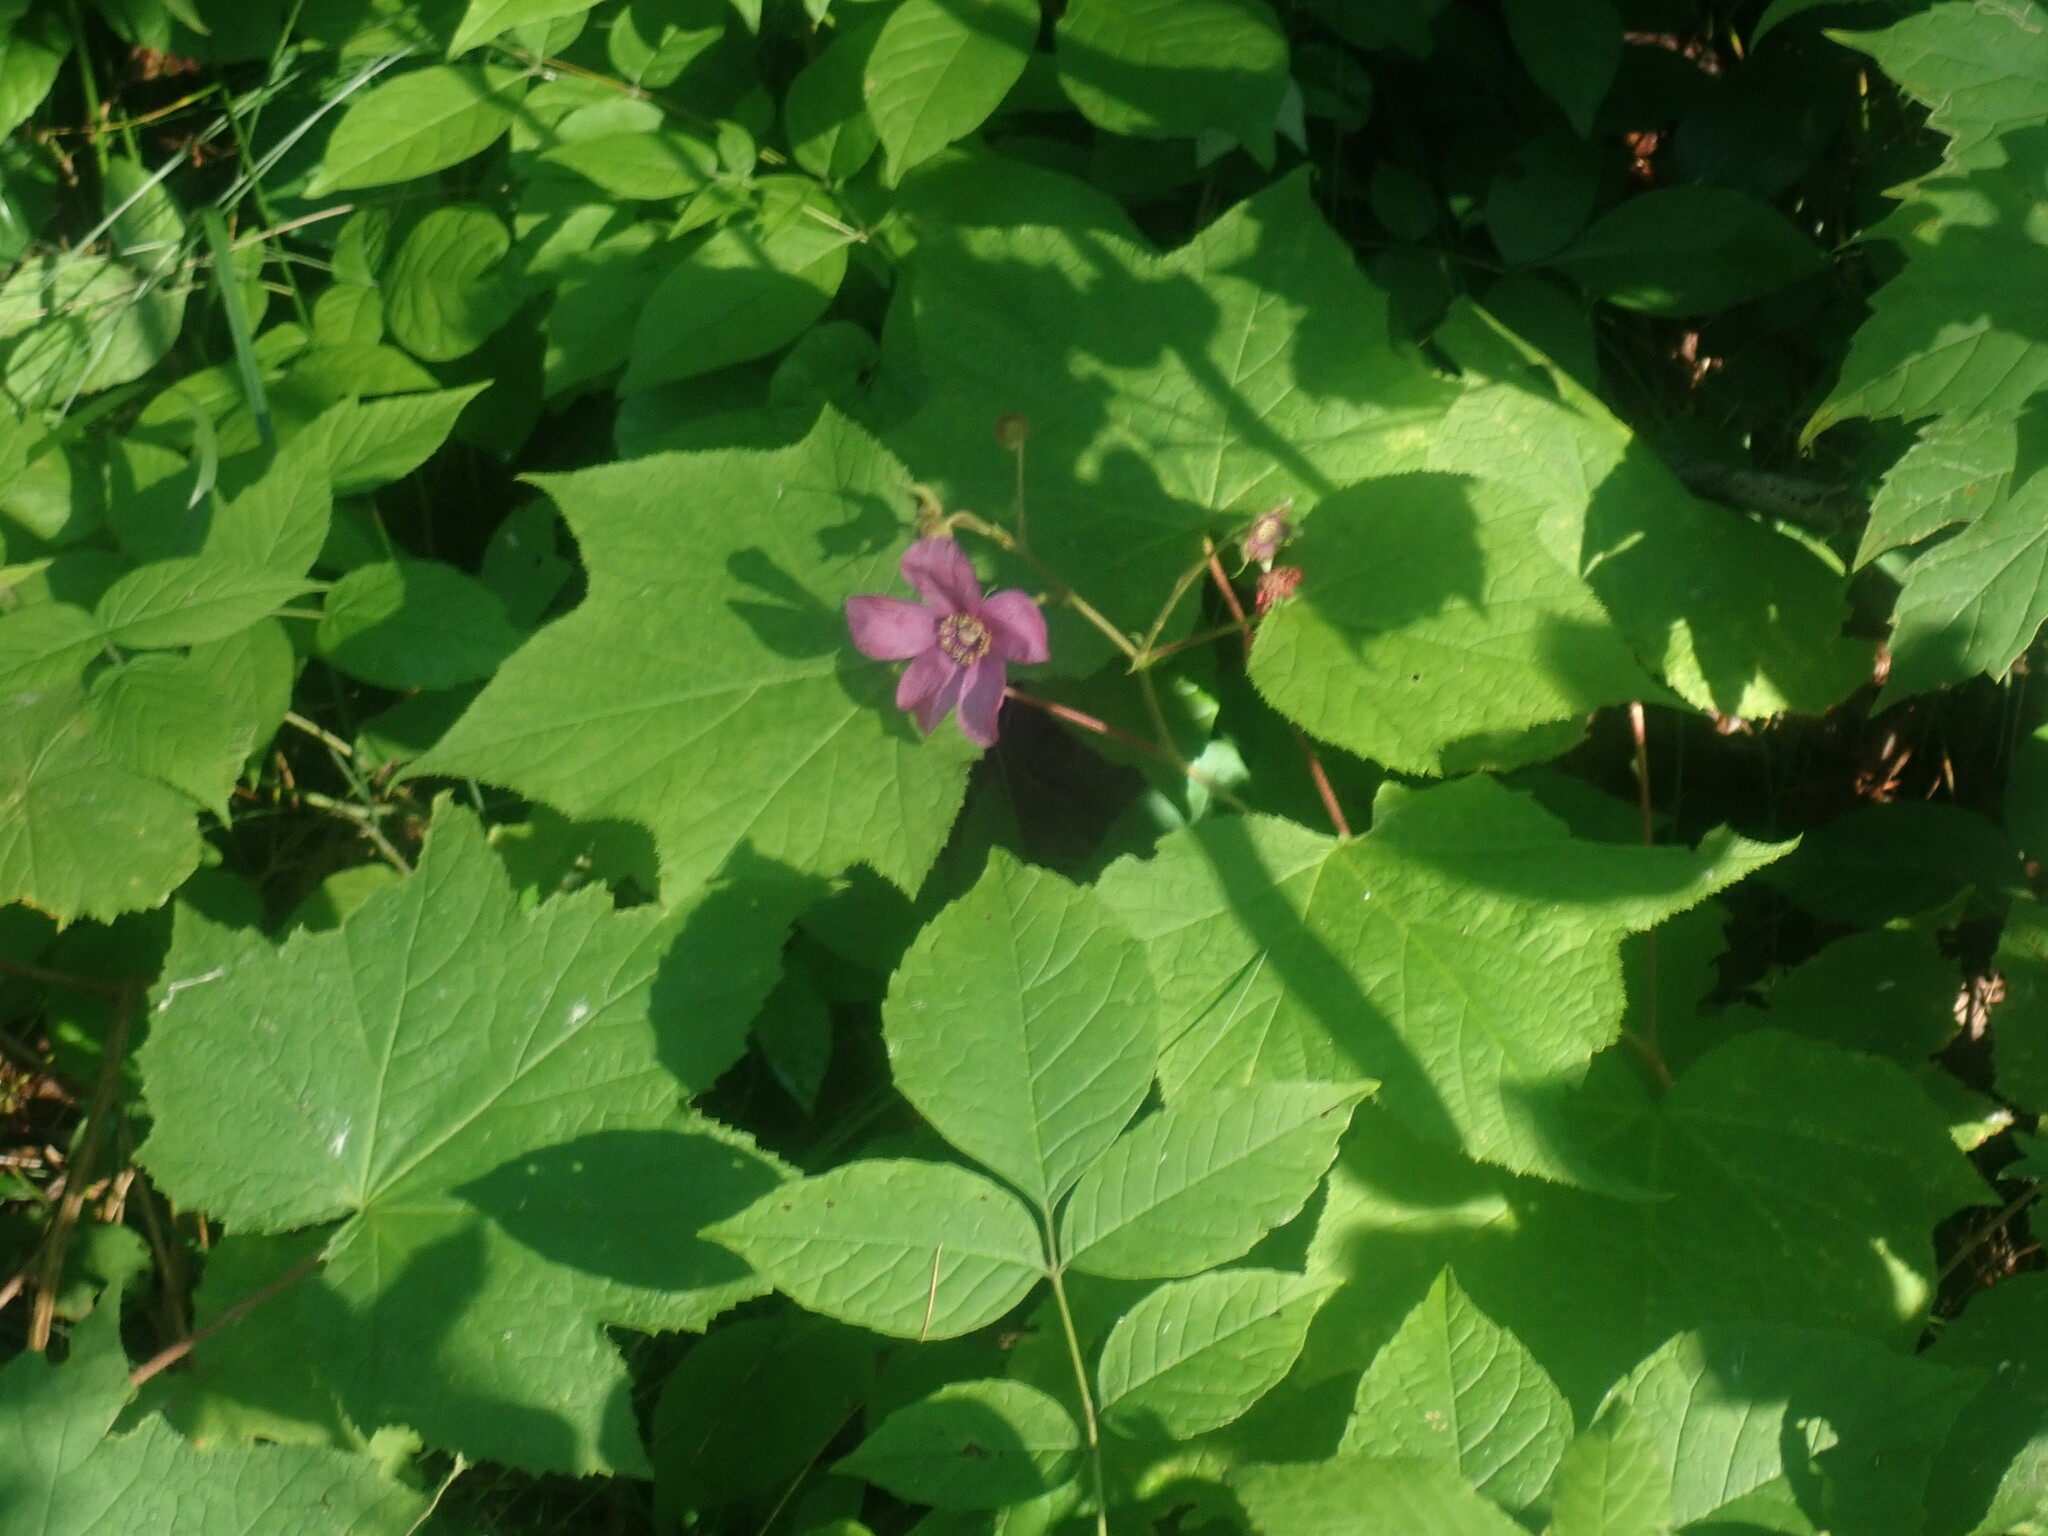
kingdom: Plantae
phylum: Tracheophyta
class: Magnoliopsida
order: Rosales
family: Rosaceae
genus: Rubus
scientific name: Rubus odoratus
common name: Purple-flowered raspberry
